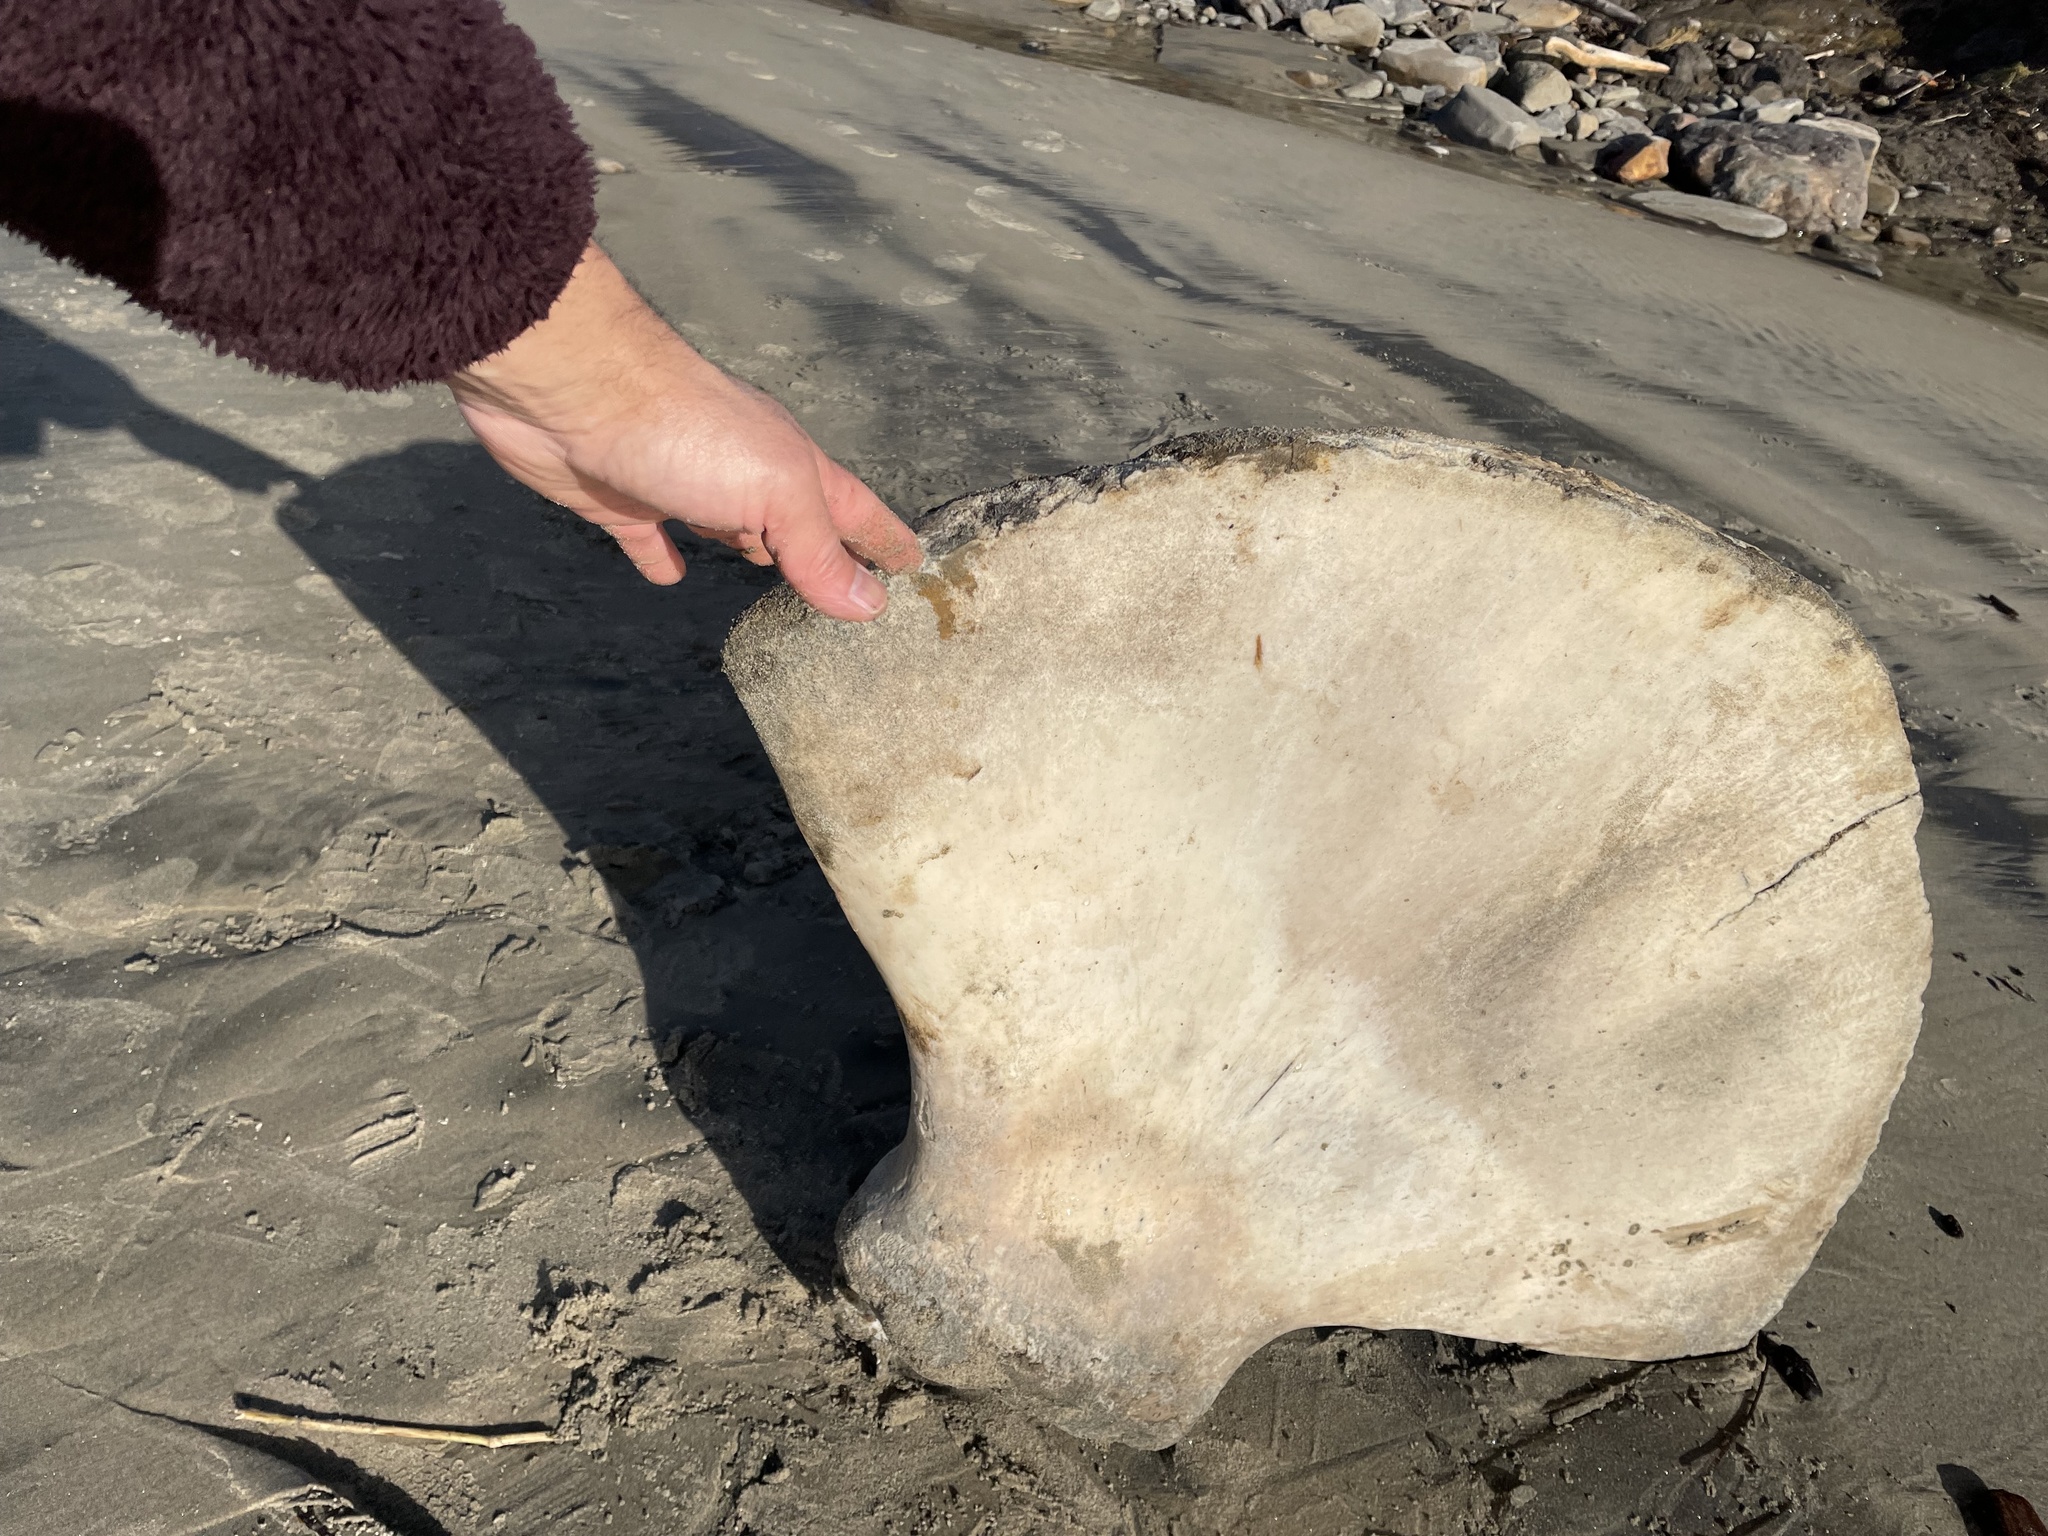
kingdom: Animalia
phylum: Chordata
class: Mammalia
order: Cetacea
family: Balaenopteridae
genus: Megaptera
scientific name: Megaptera novaeangliae
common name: Humpback whale
